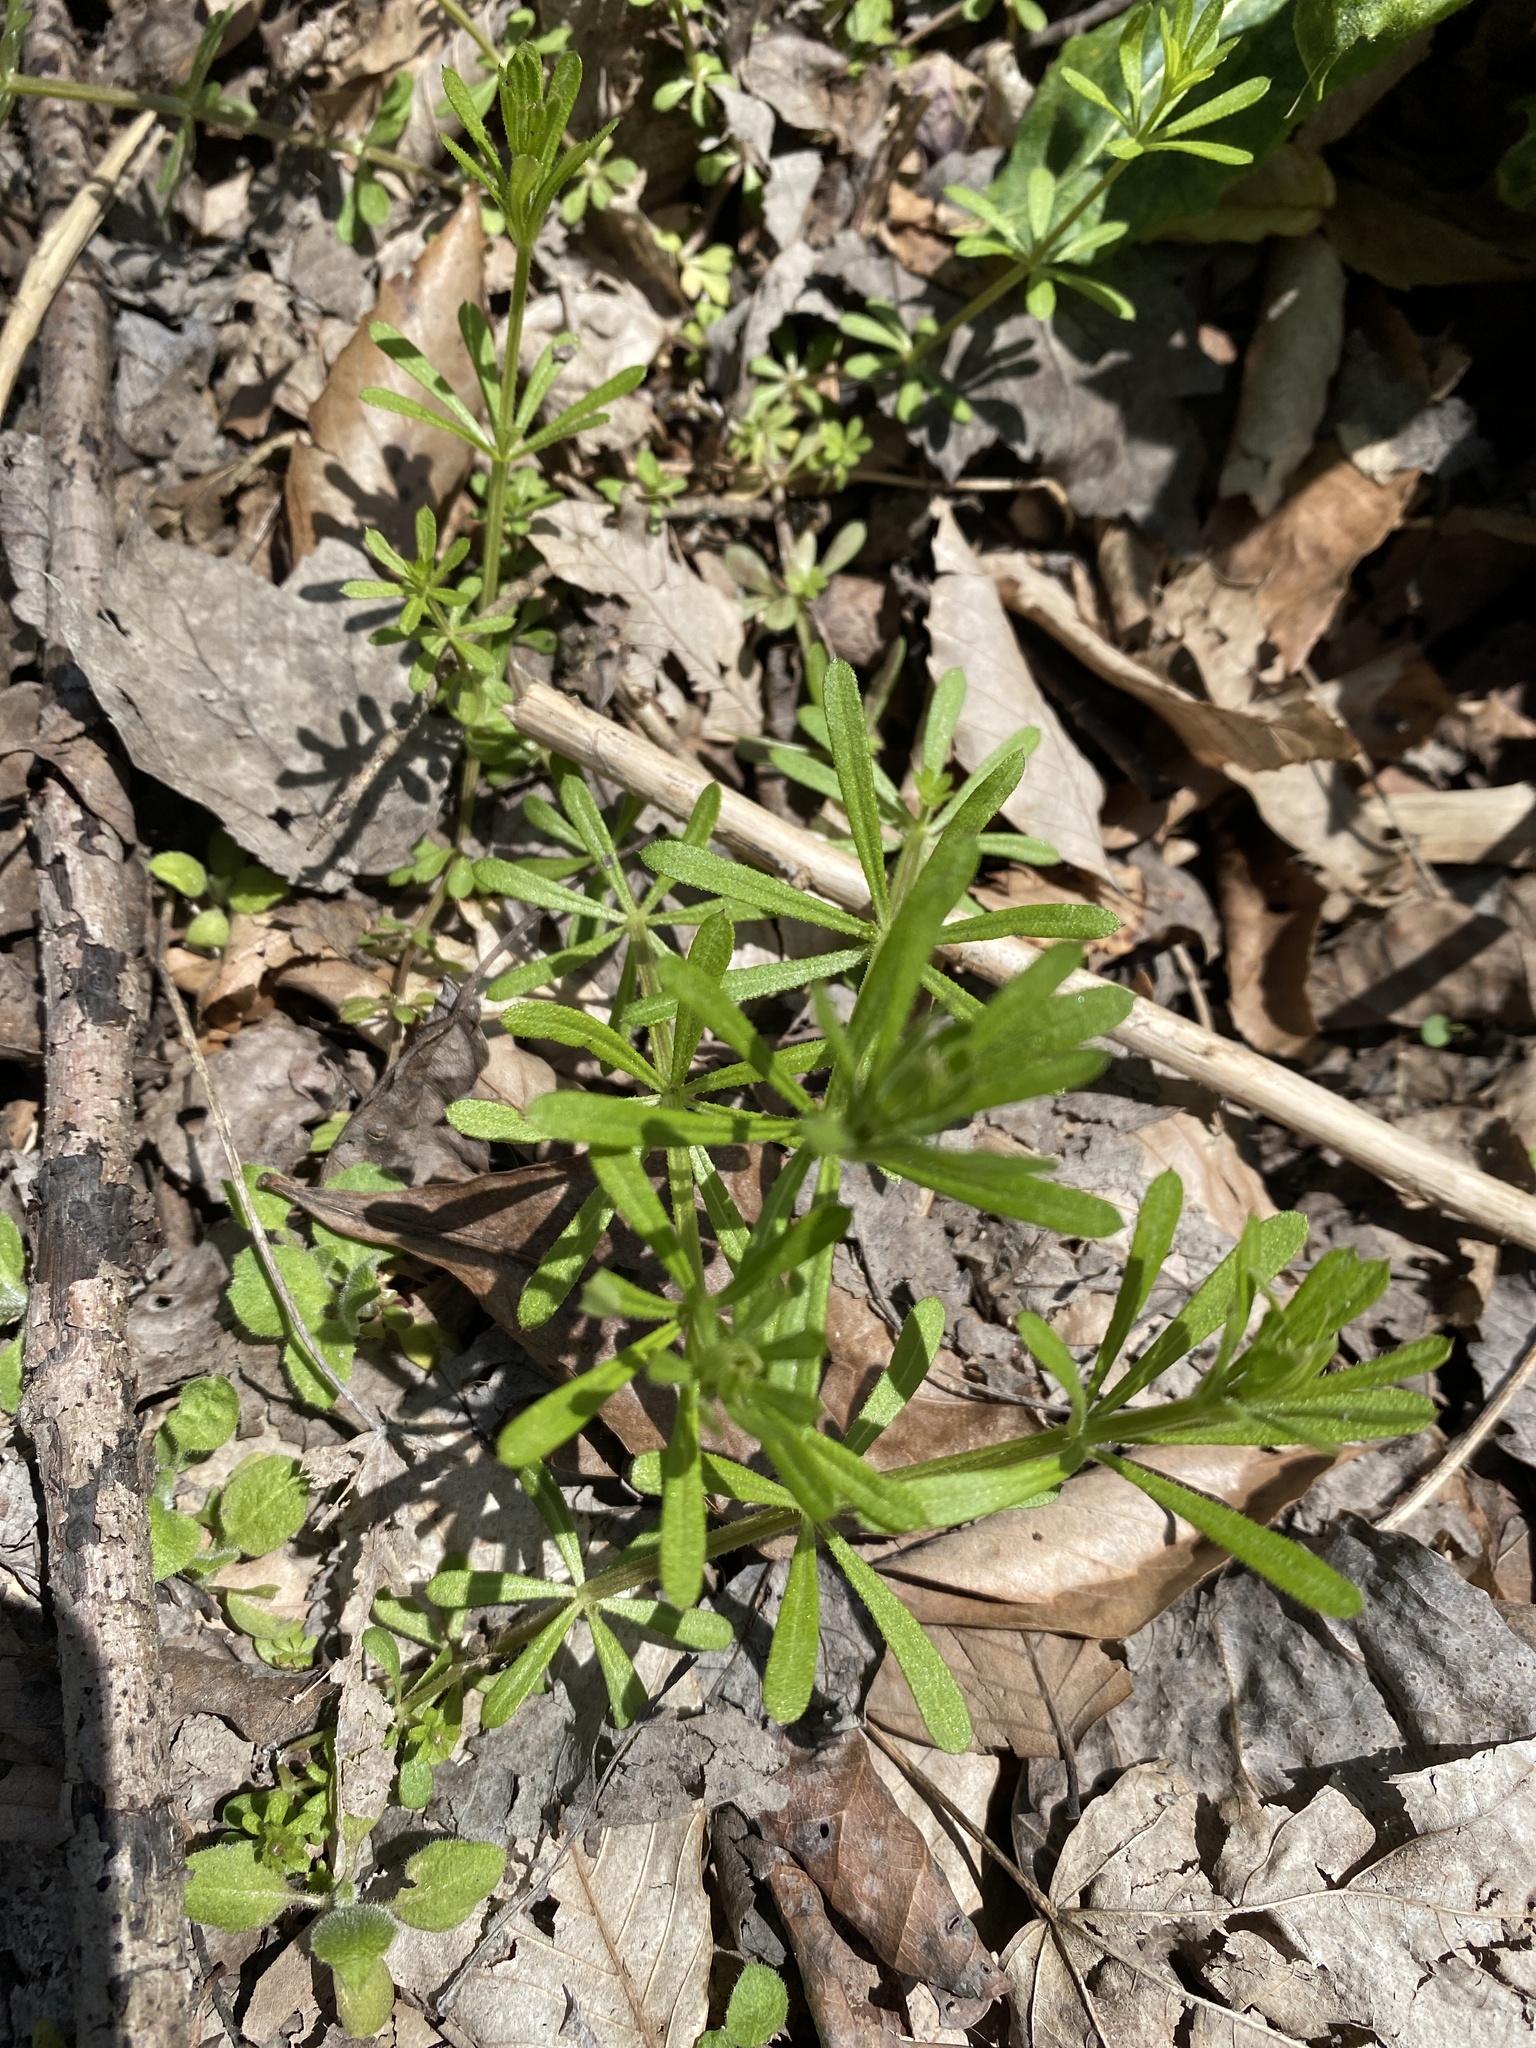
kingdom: Plantae
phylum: Tracheophyta
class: Magnoliopsida
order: Gentianales
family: Rubiaceae
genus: Galium
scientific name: Galium aparine
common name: Cleavers
